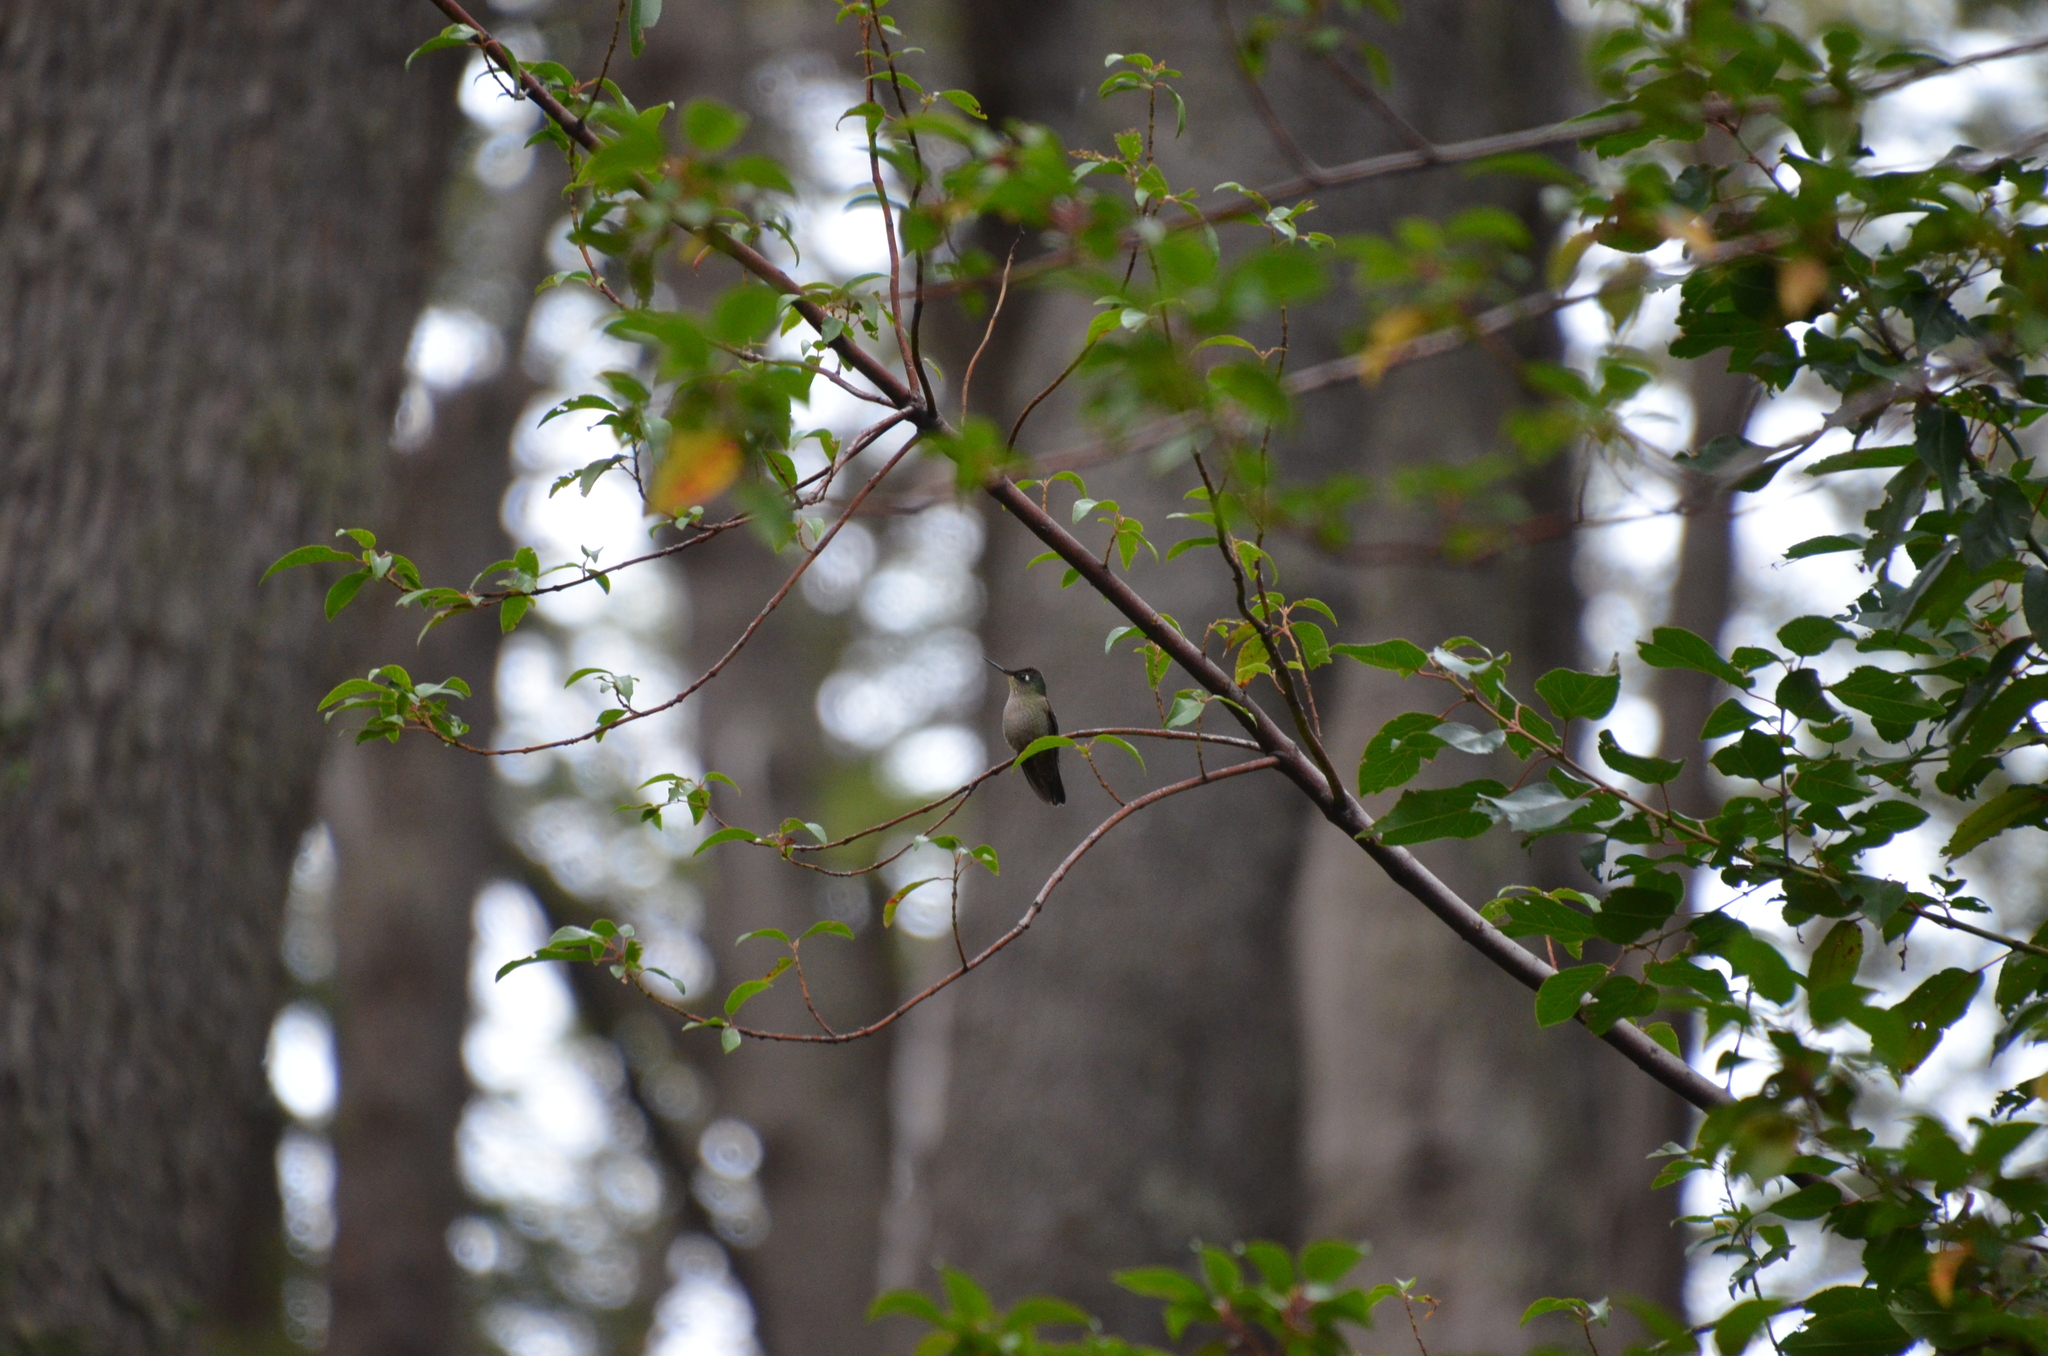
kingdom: Animalia
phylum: Chordata
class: Aves
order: Apodiformes
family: Trochilidae
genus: Sephanoides
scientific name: Sephanoides sephaniodes
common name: Green-backed firecrown
